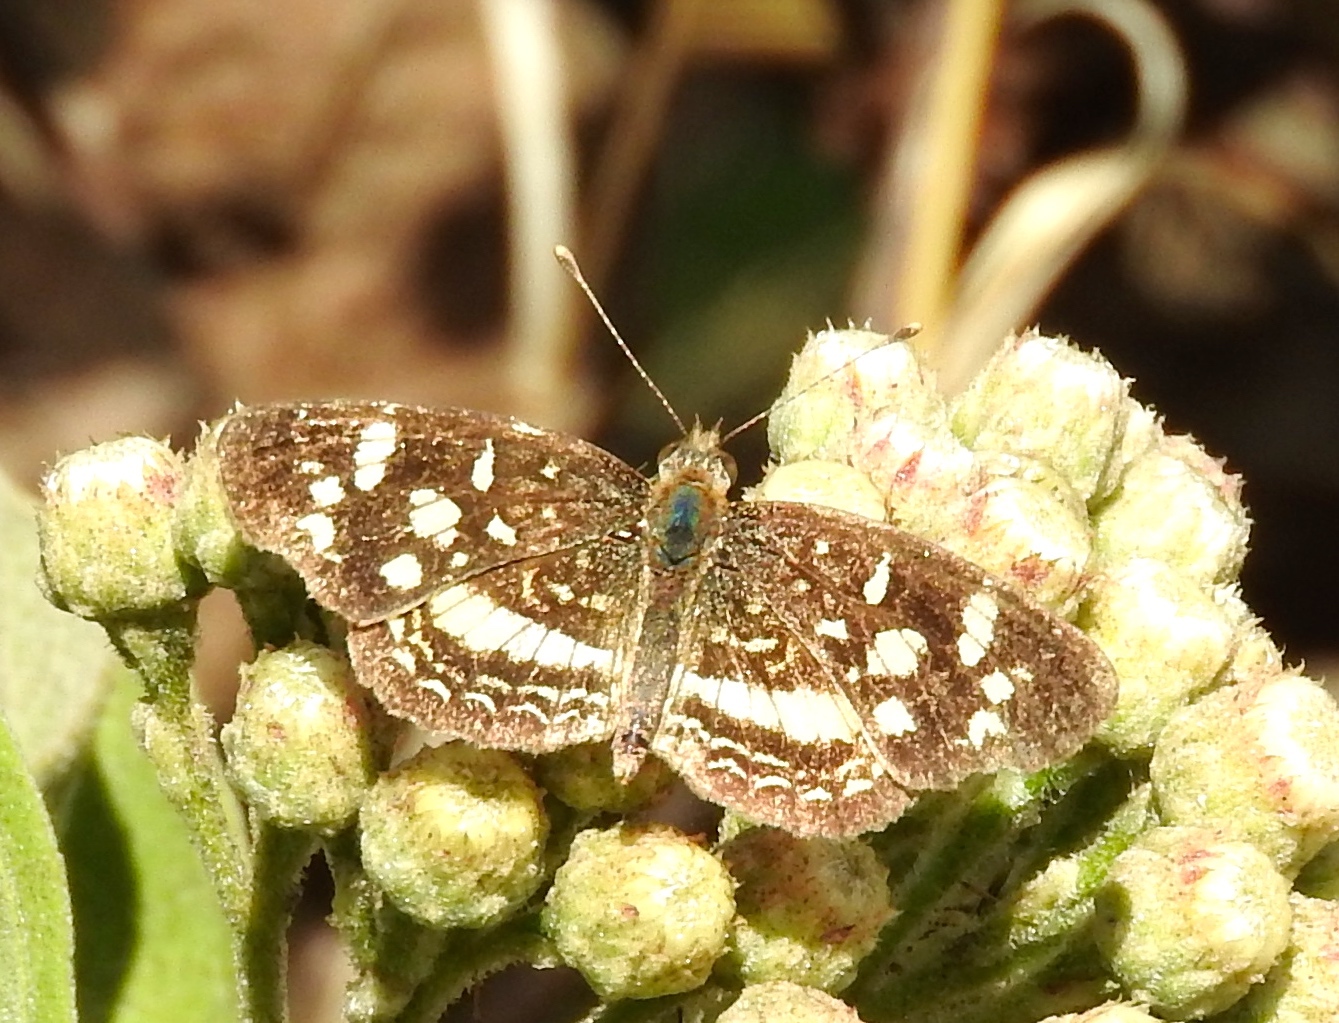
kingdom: Animalia
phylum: Arthropoda
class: Insecta
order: Lepidoptera
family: Nymphalidae
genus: Anthanassa
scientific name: Anthanassa tulcis
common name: Pale-banded crescent
